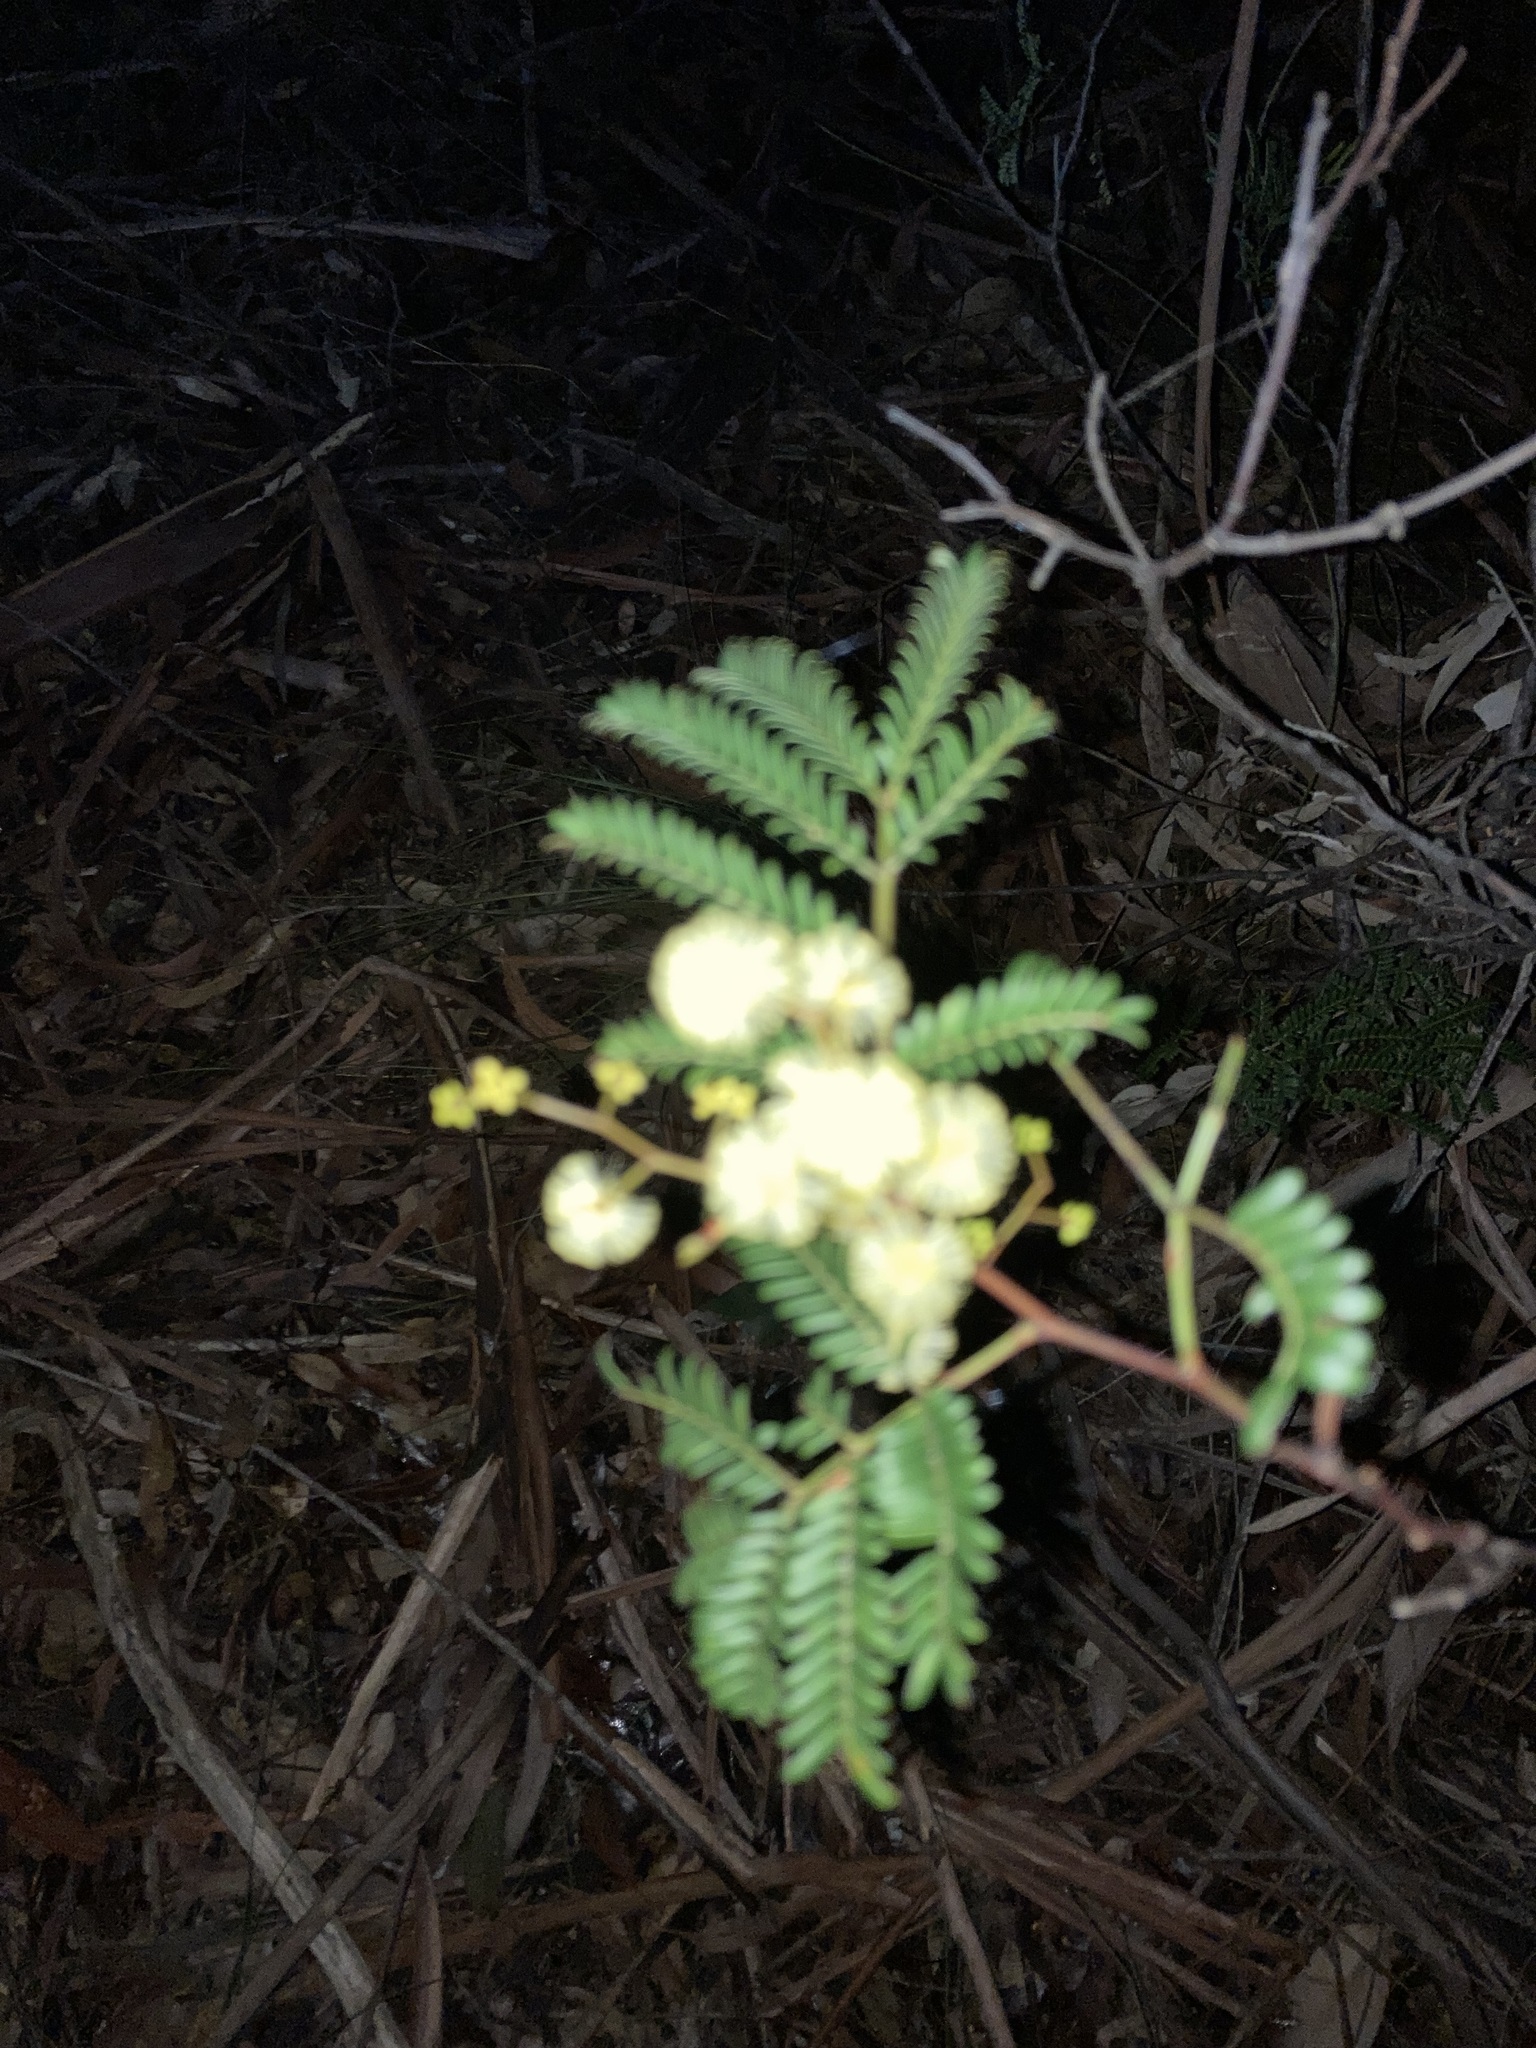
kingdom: Plantae
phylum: Tracheophyta
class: Magnoliopsida
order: Fabales
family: Fabaceae
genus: Acacia
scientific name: Acacia terminalis
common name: Cedar wattle
